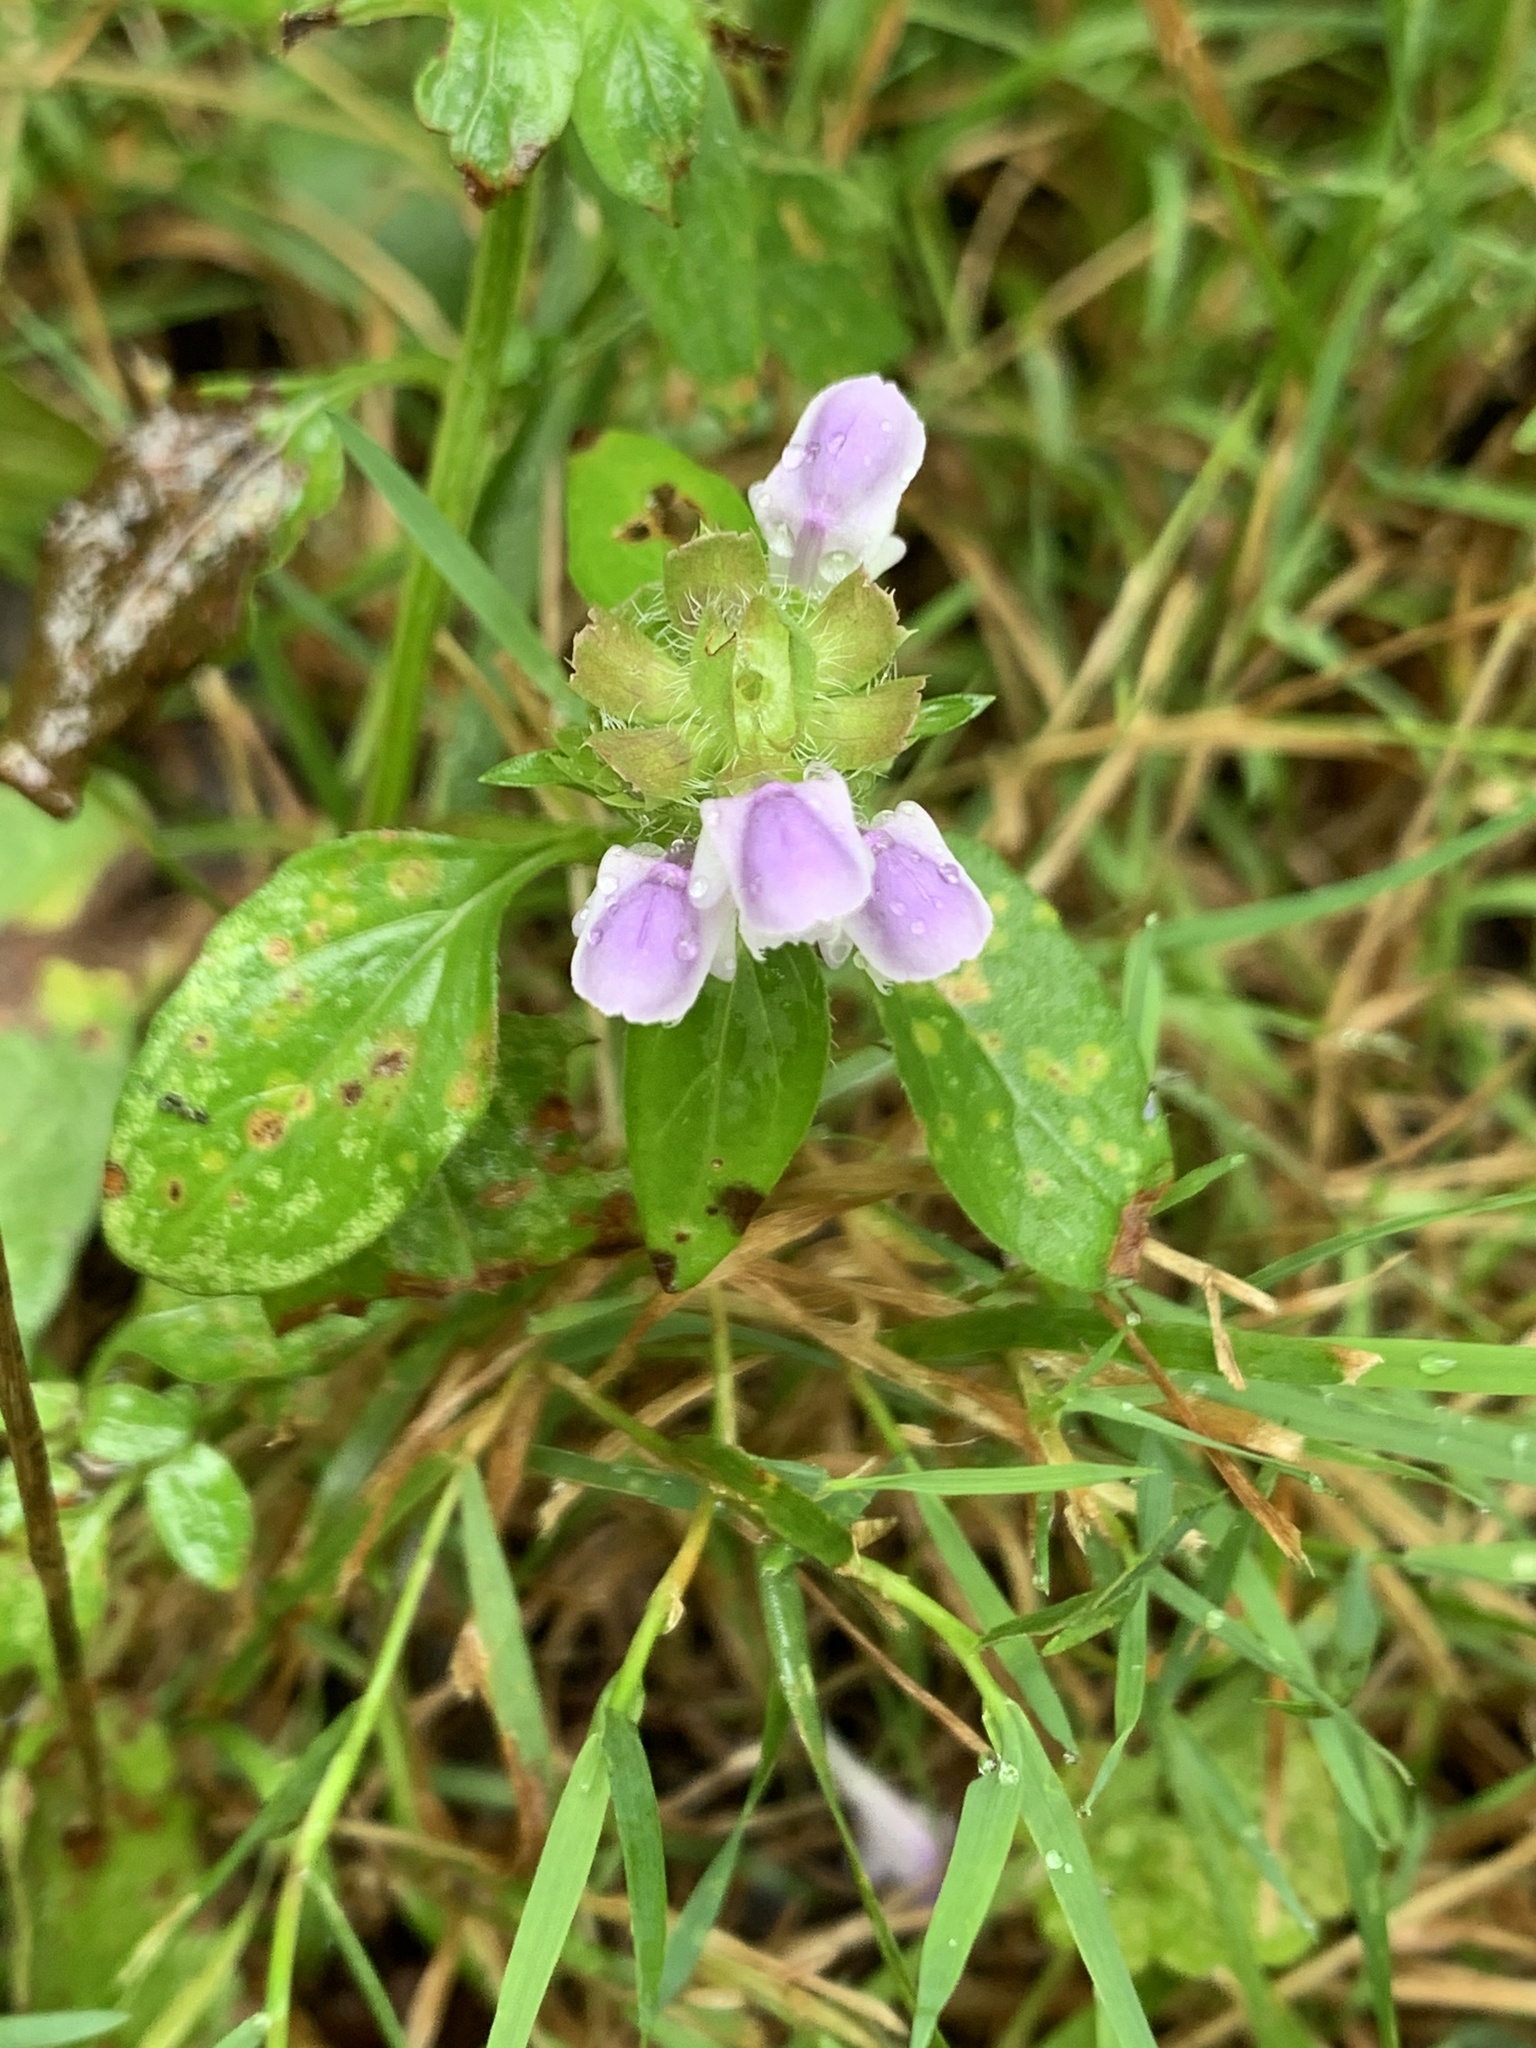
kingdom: Plantae
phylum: Tracheophyta
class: Magnoliopsida
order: Lamiales
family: Lamiaceae
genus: Prunella
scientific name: Prunella vulgaris
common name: Heal-all
